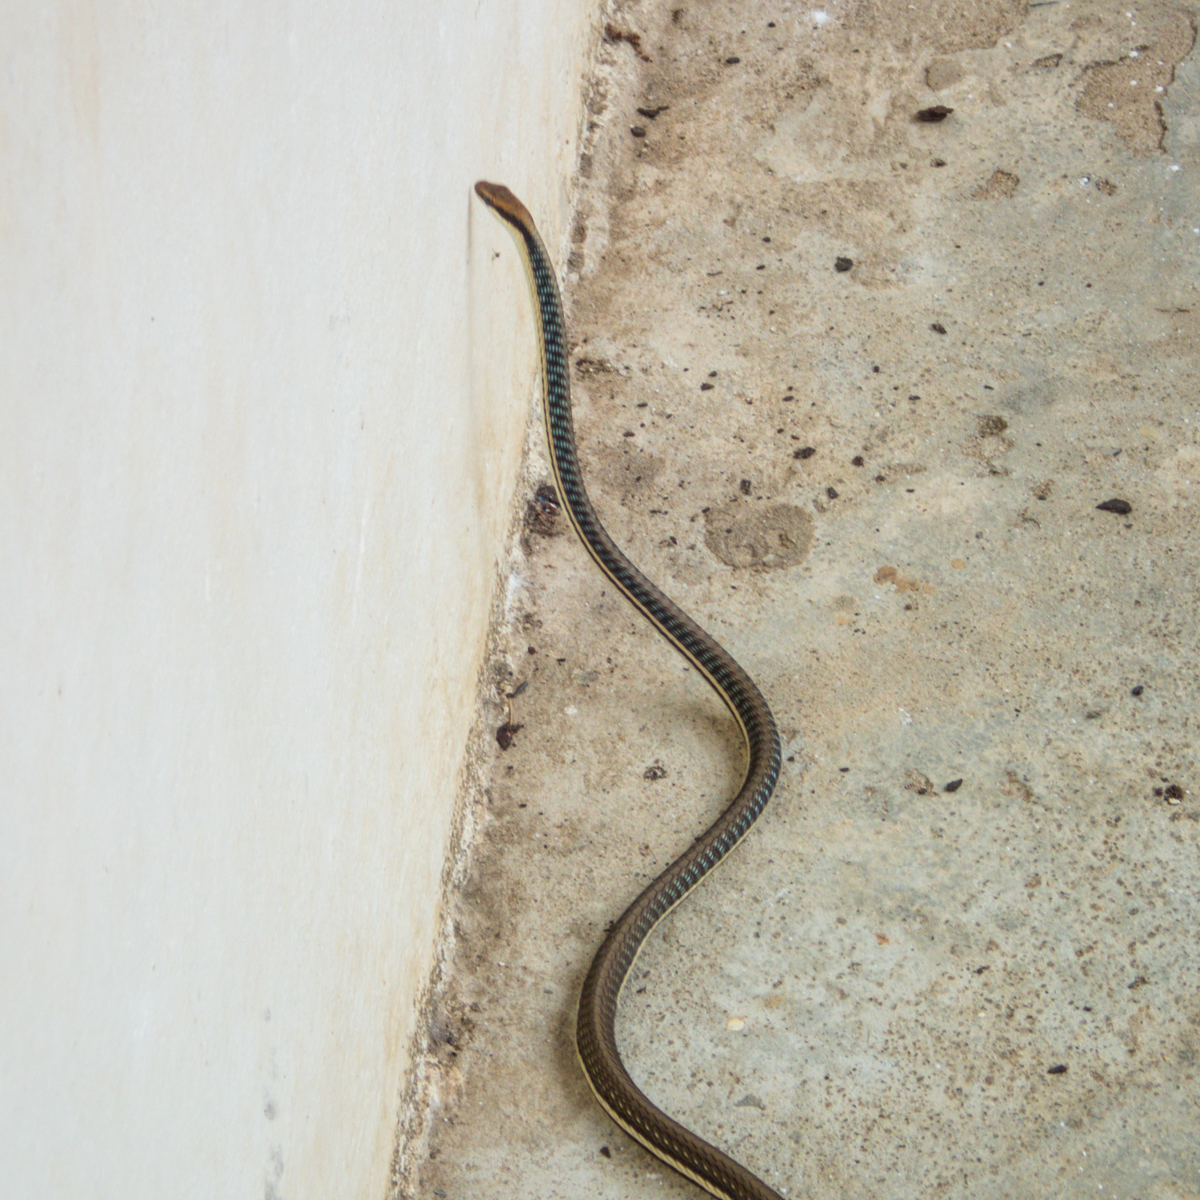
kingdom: Animalia
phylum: Chordata
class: Squamata
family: Colubridae
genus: Dendrelaphis
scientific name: Dendrelaphis pictus
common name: Indonesian bronze-back
